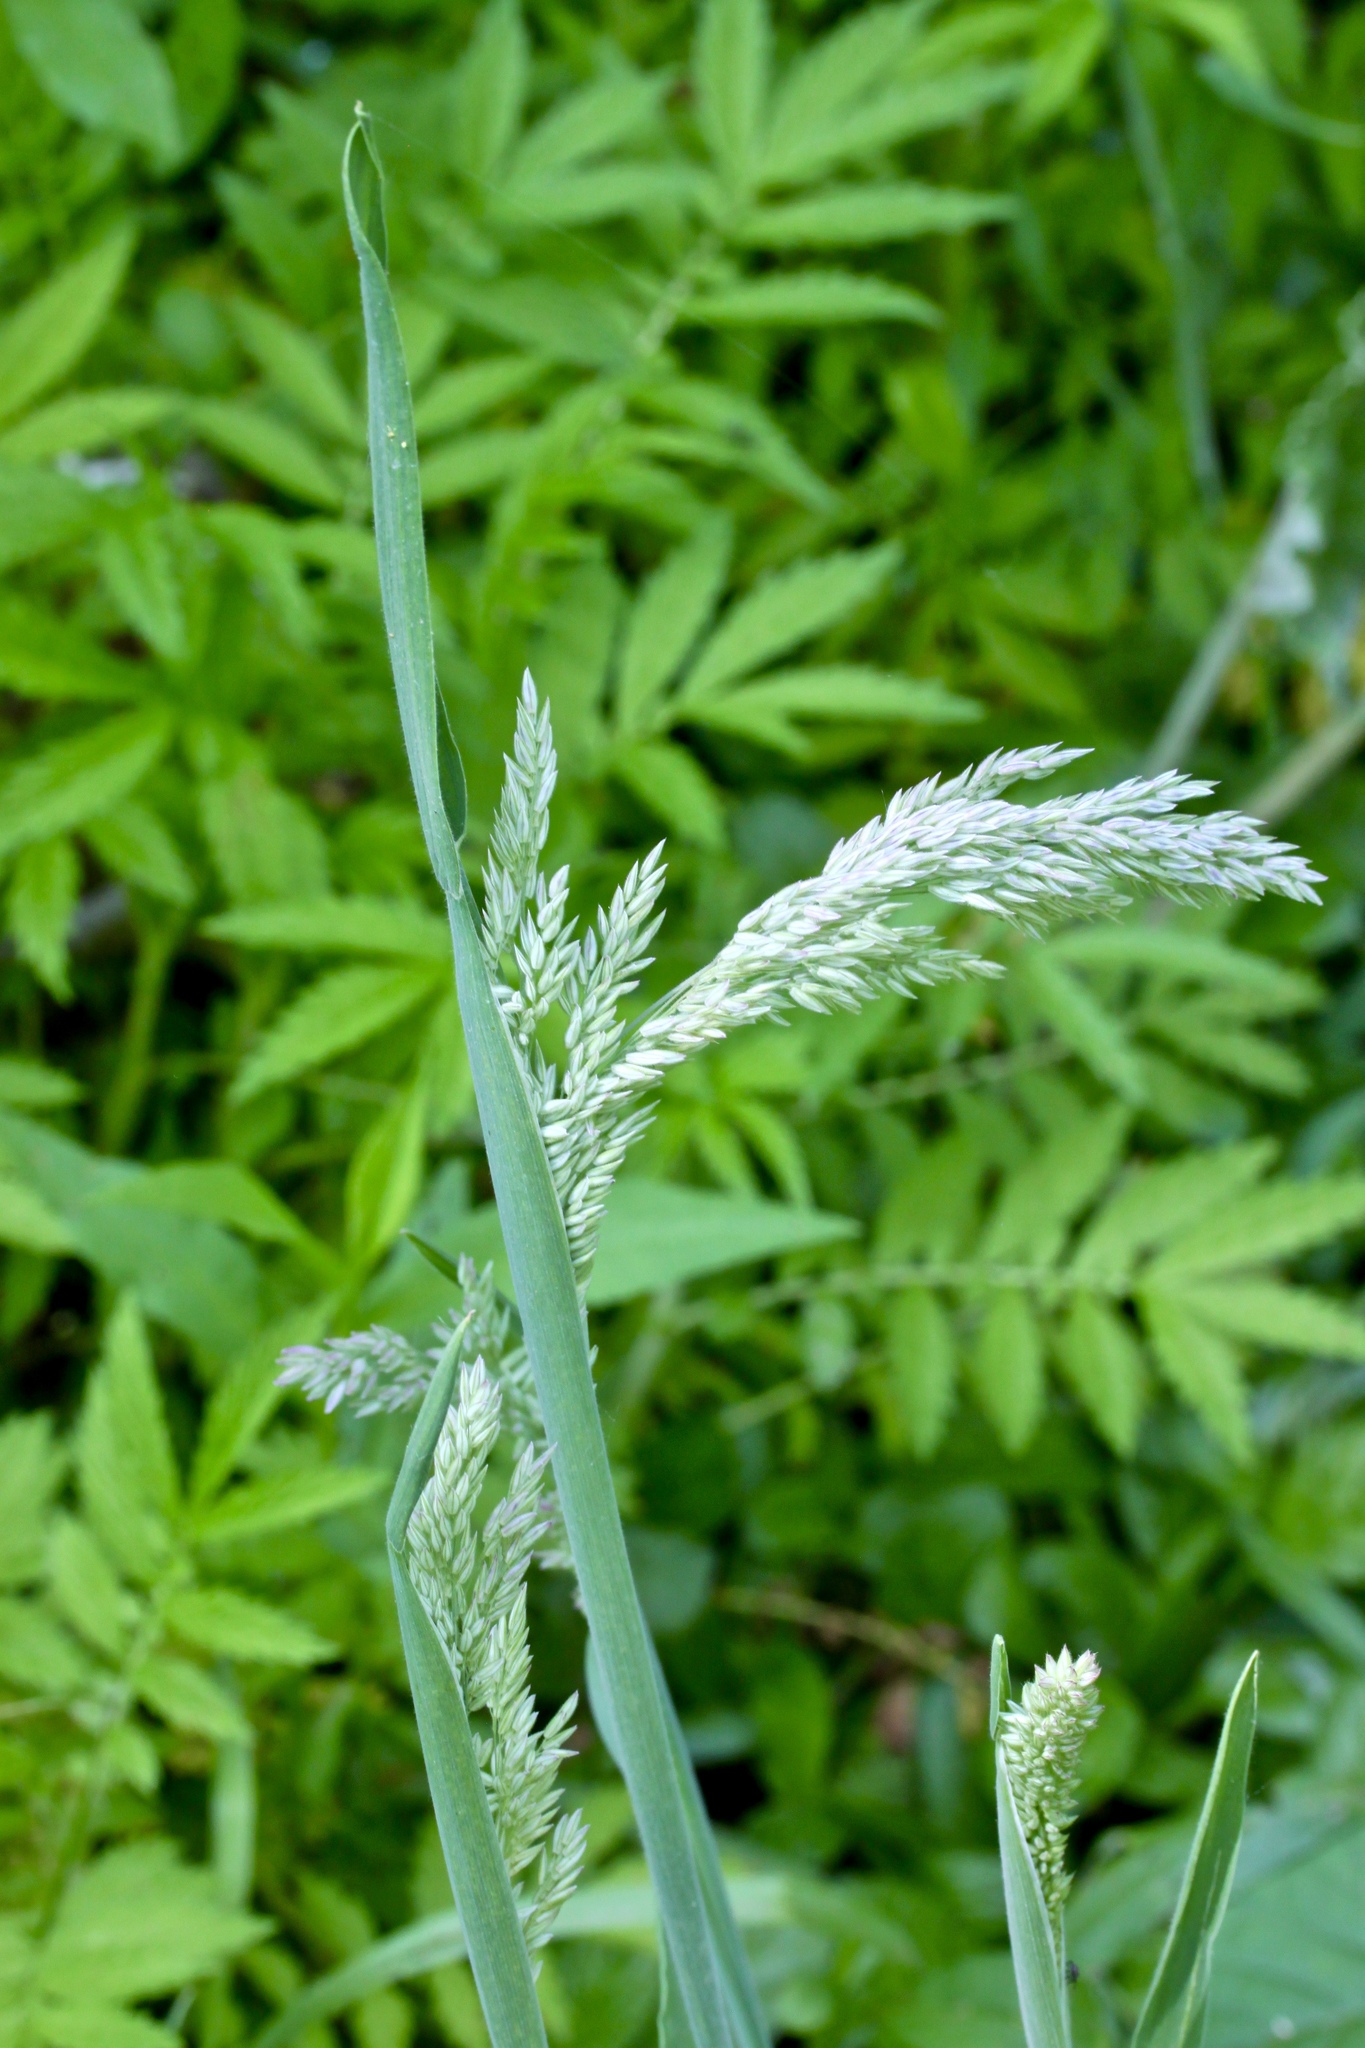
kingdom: Plantae
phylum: Tracheophyta
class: Liliopsida
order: Poales
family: Poaceae
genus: Holcus
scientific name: Holcus lanatus
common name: Yorkshire-fog
